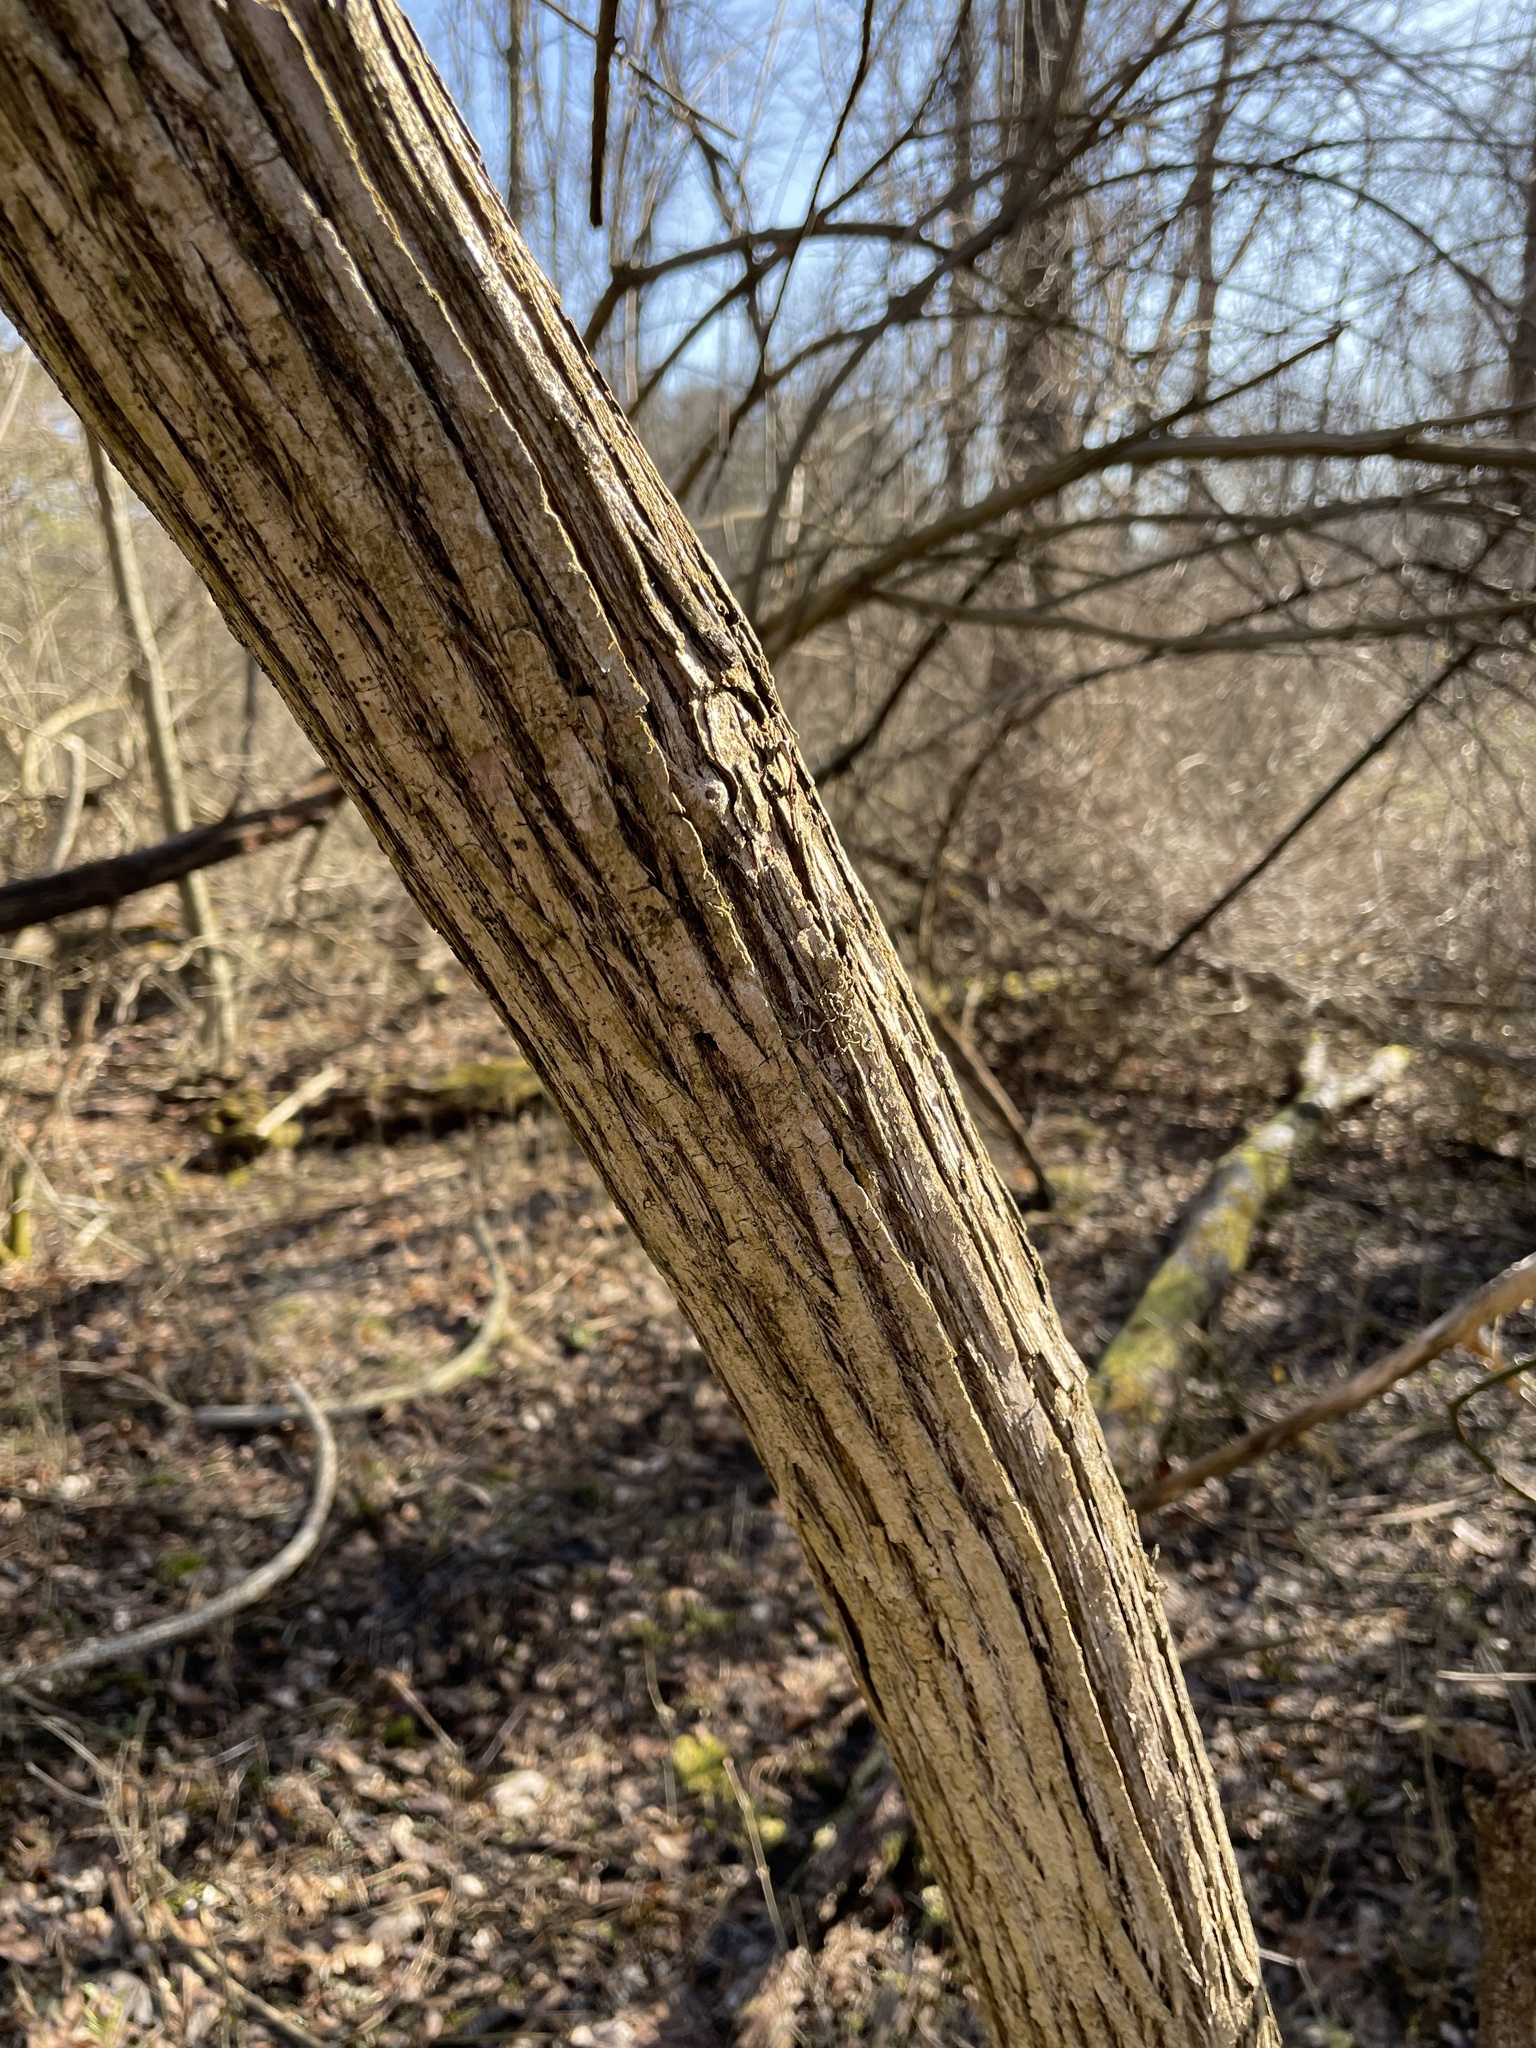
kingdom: Plantae
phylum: Tracheophyta
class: Magnoliopsida
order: Dipsacales
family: Caprifoliaceae
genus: Lonicera
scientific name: Lonicera maackii
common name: Amur honeysuckle
